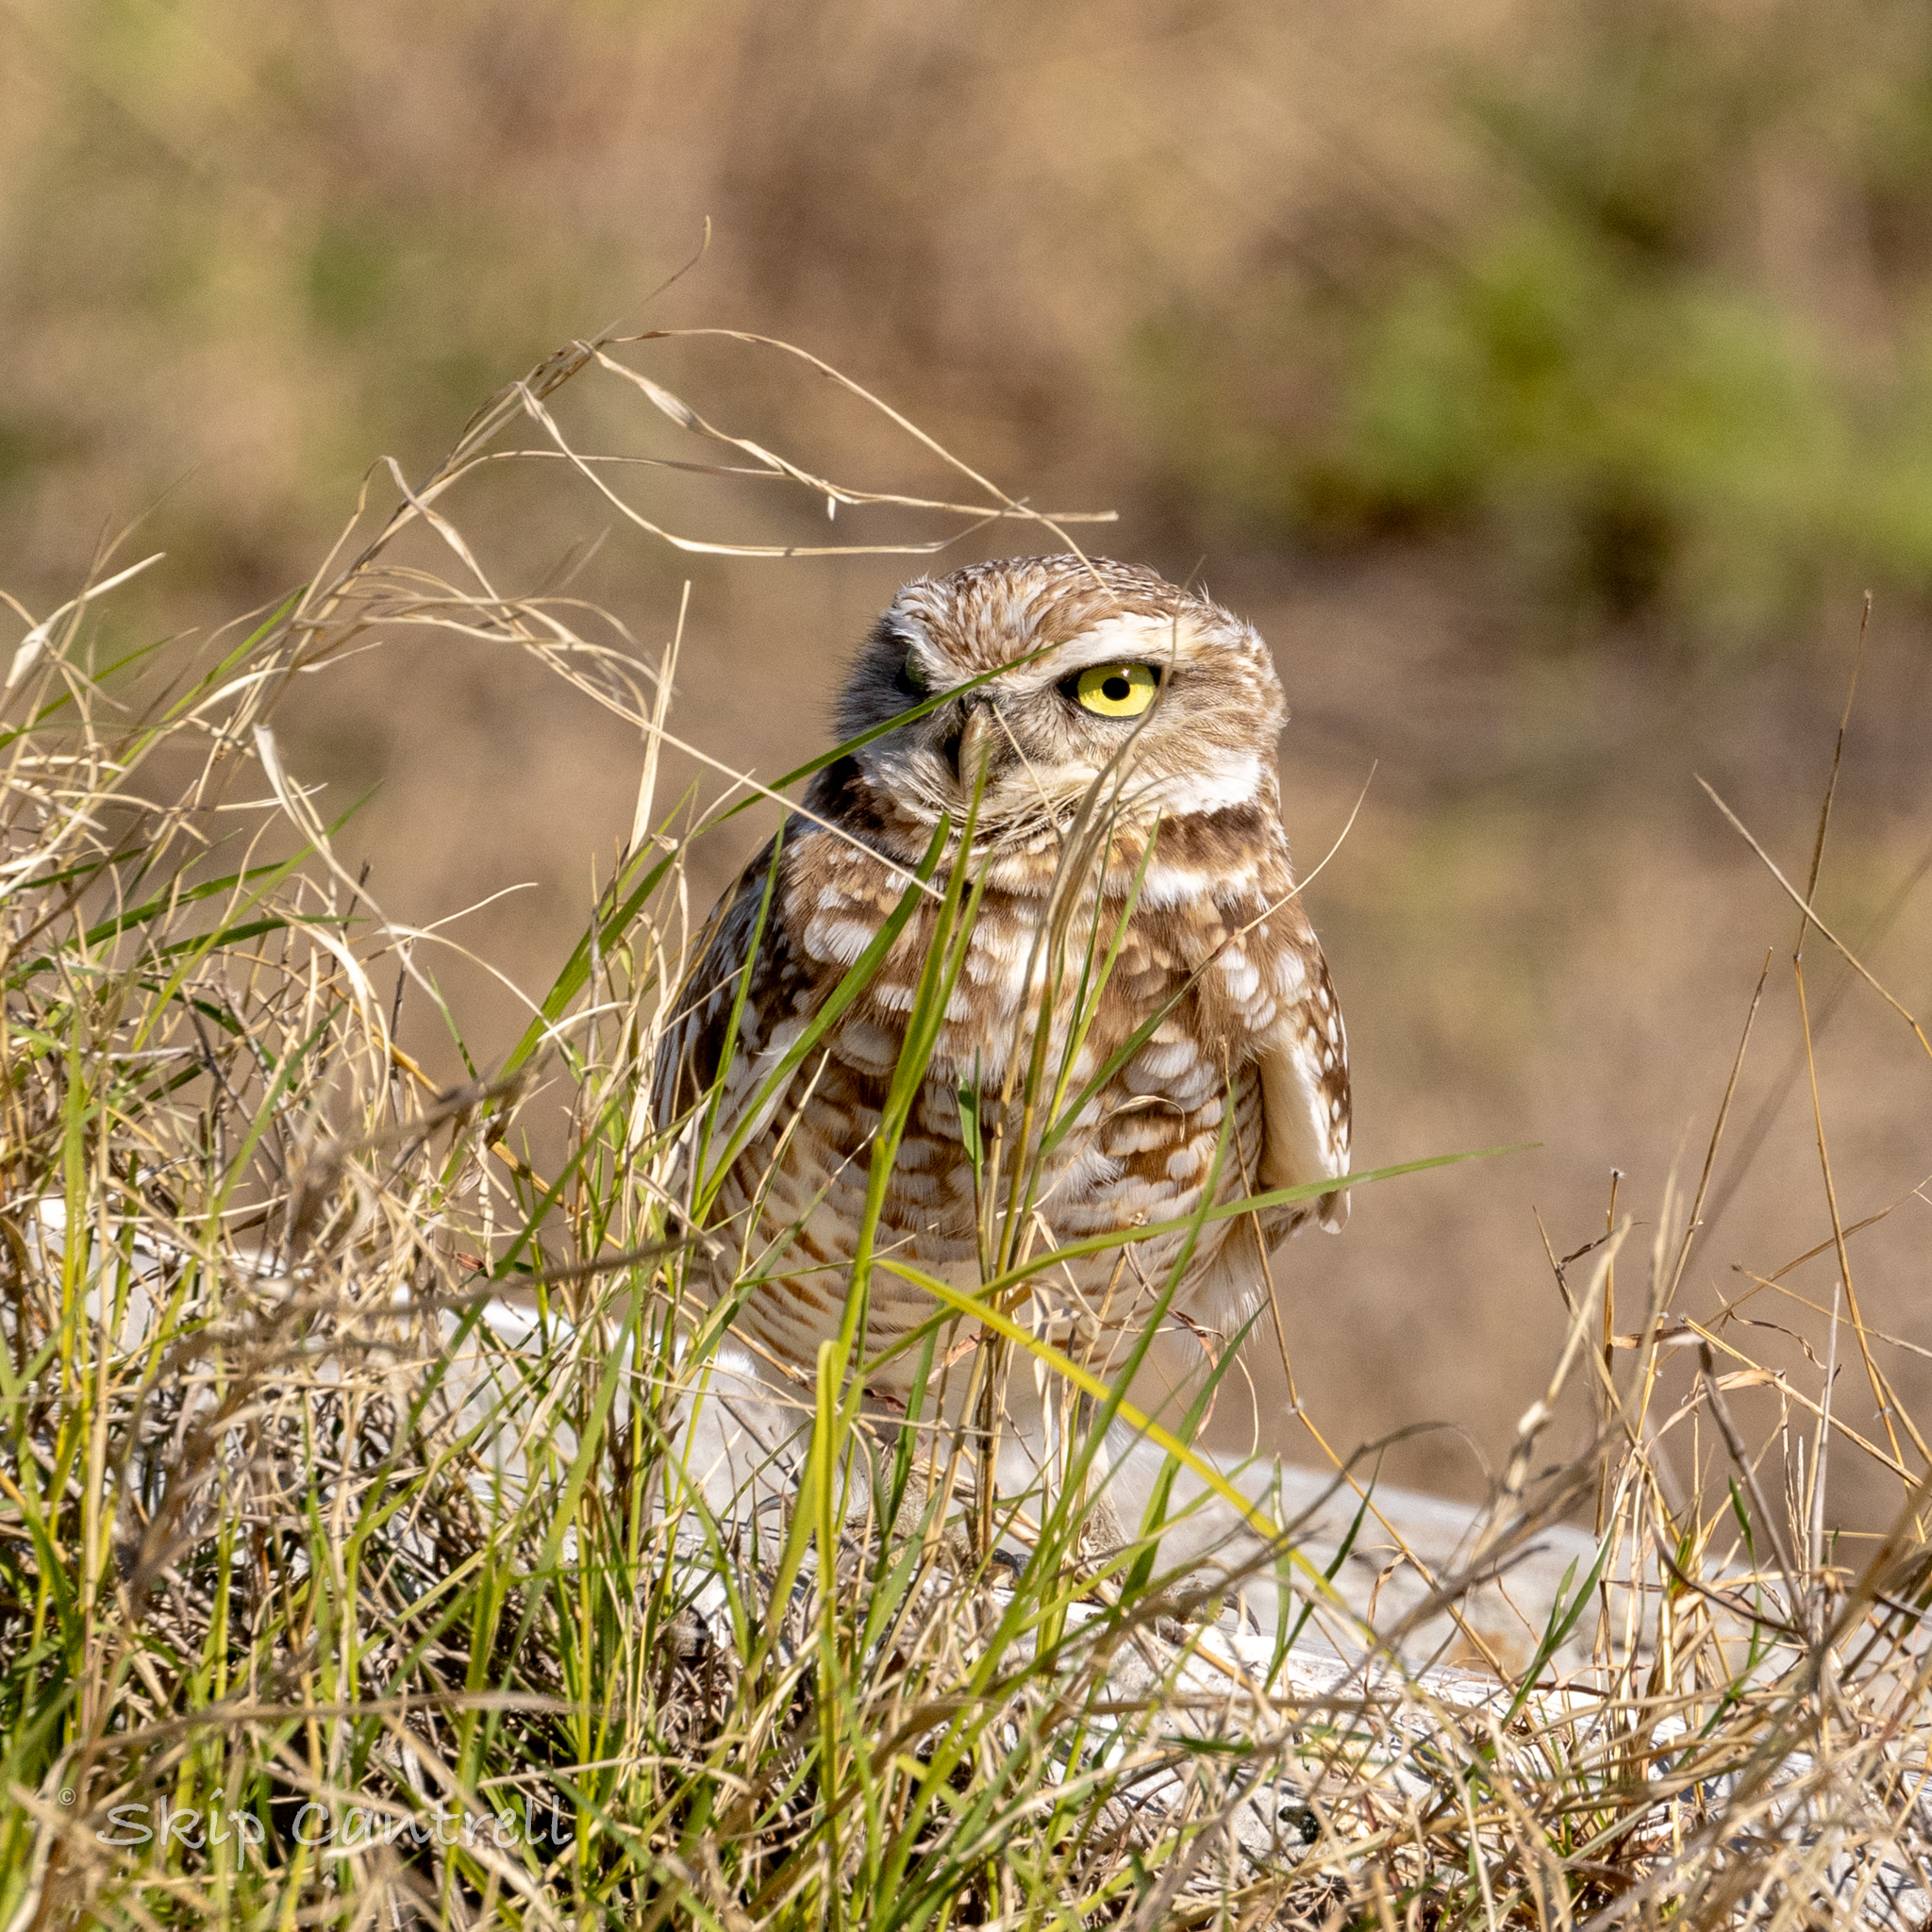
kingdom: Animalia
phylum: Chordata
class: Aves
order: Strigiformes
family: Strigidae
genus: Athene
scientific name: Athene cunicularia
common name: Burrowing owl
